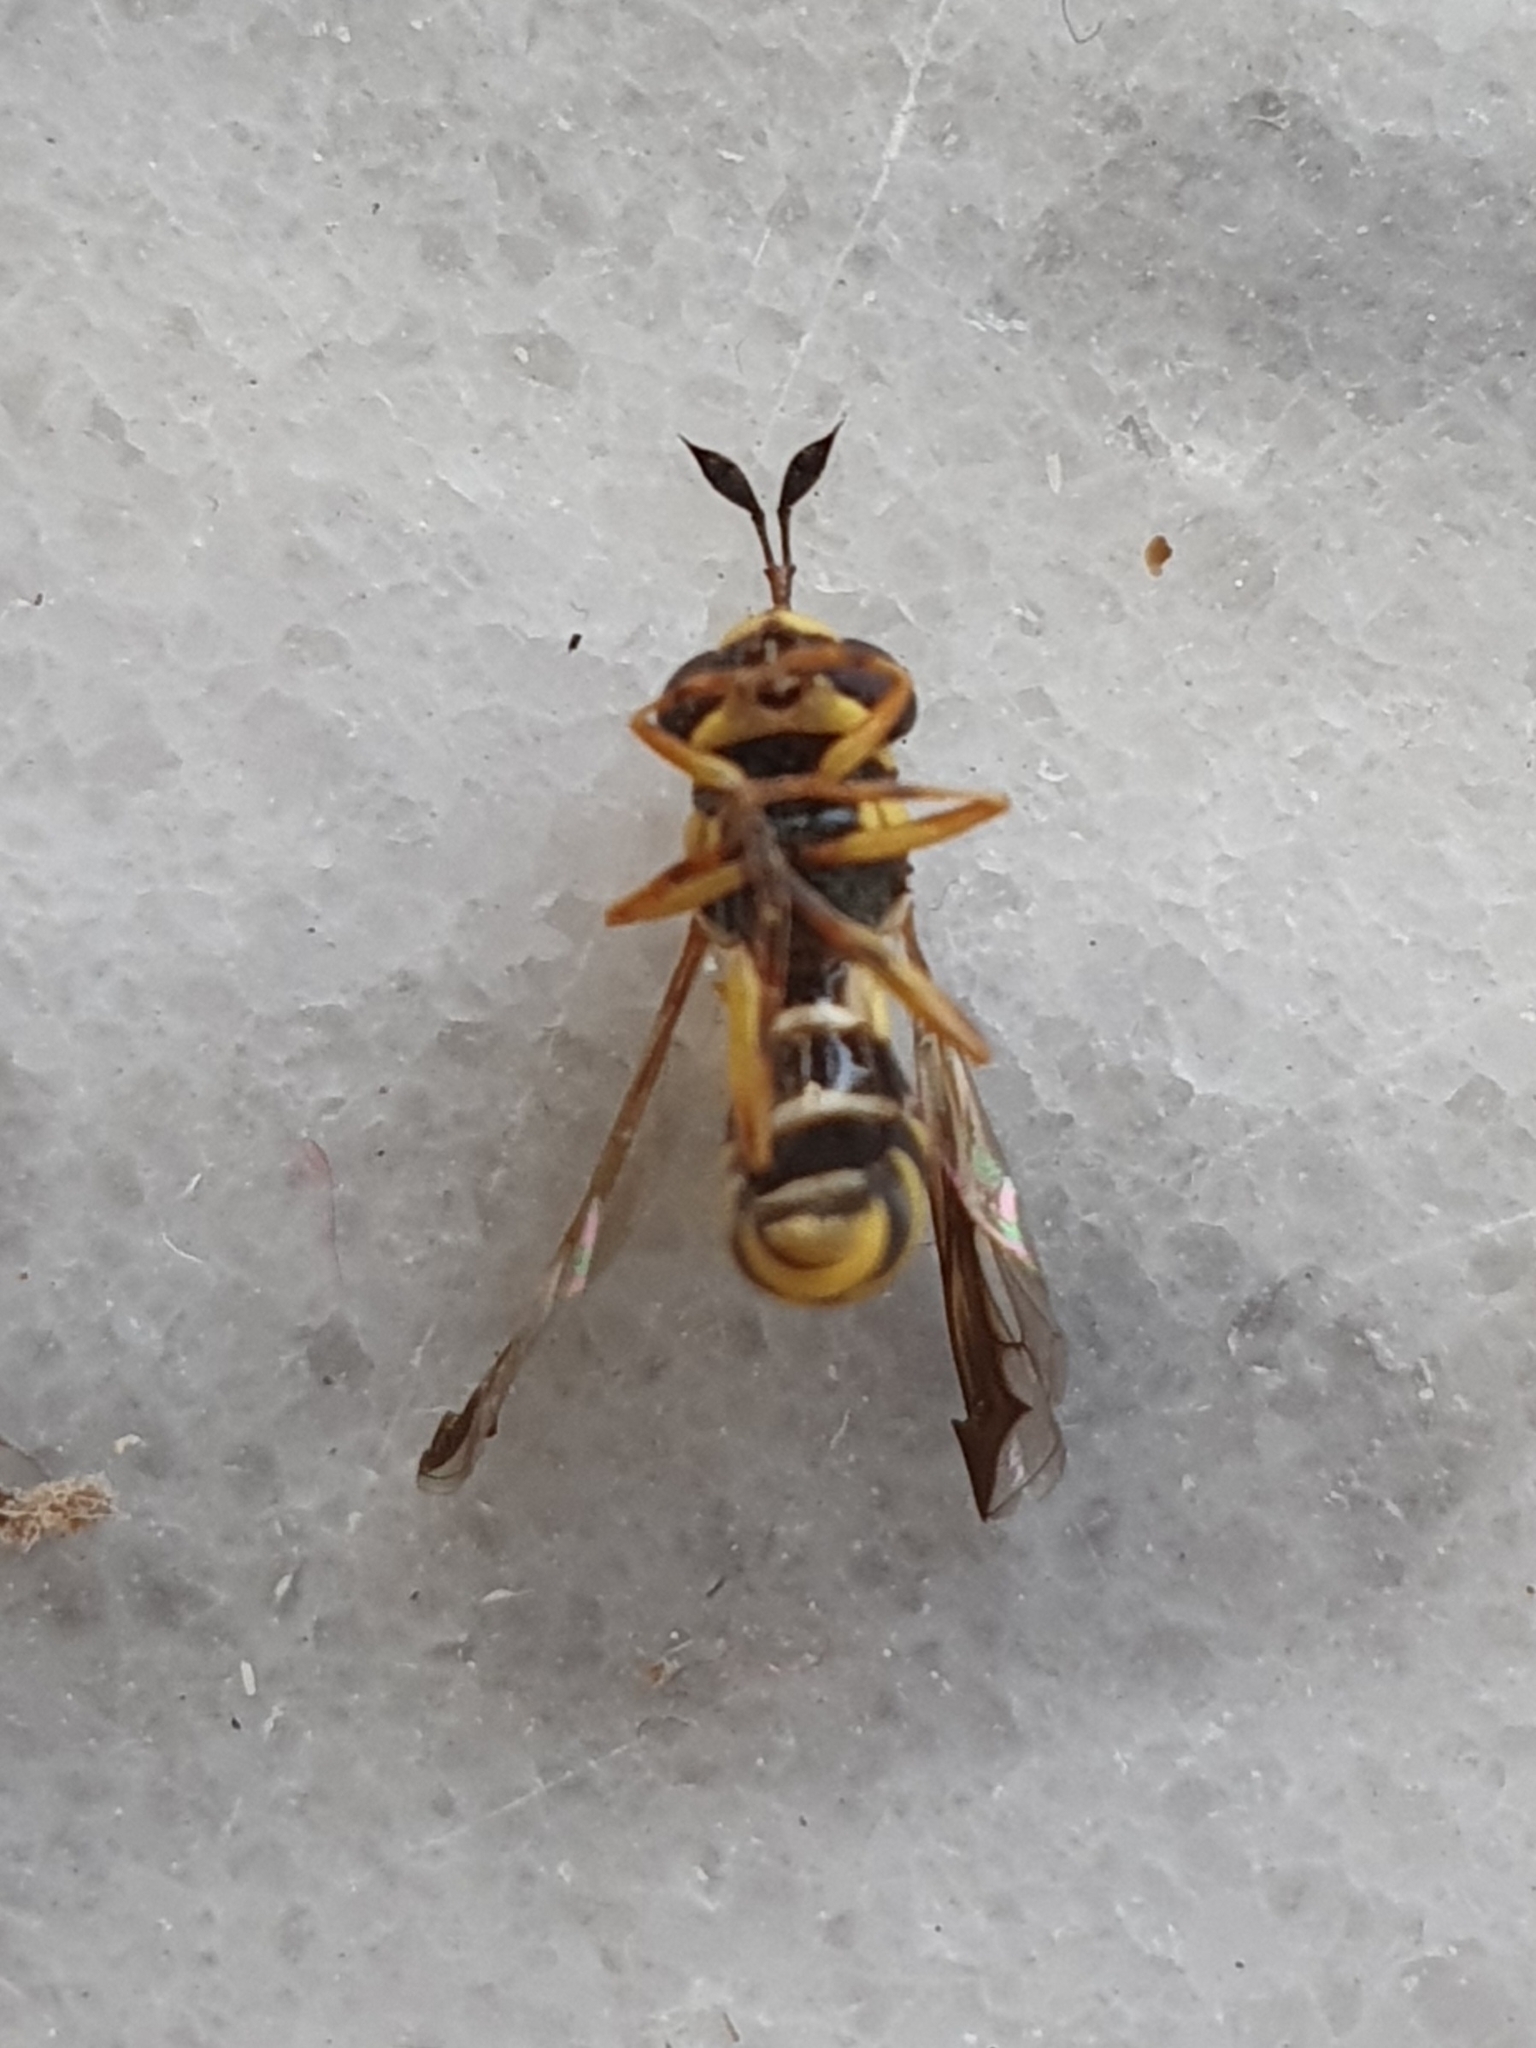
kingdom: Animalia
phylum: Arthropoda
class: Insecta
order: Diptera
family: Syrphidae
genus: Ceriana
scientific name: Ceriana vespiformis
